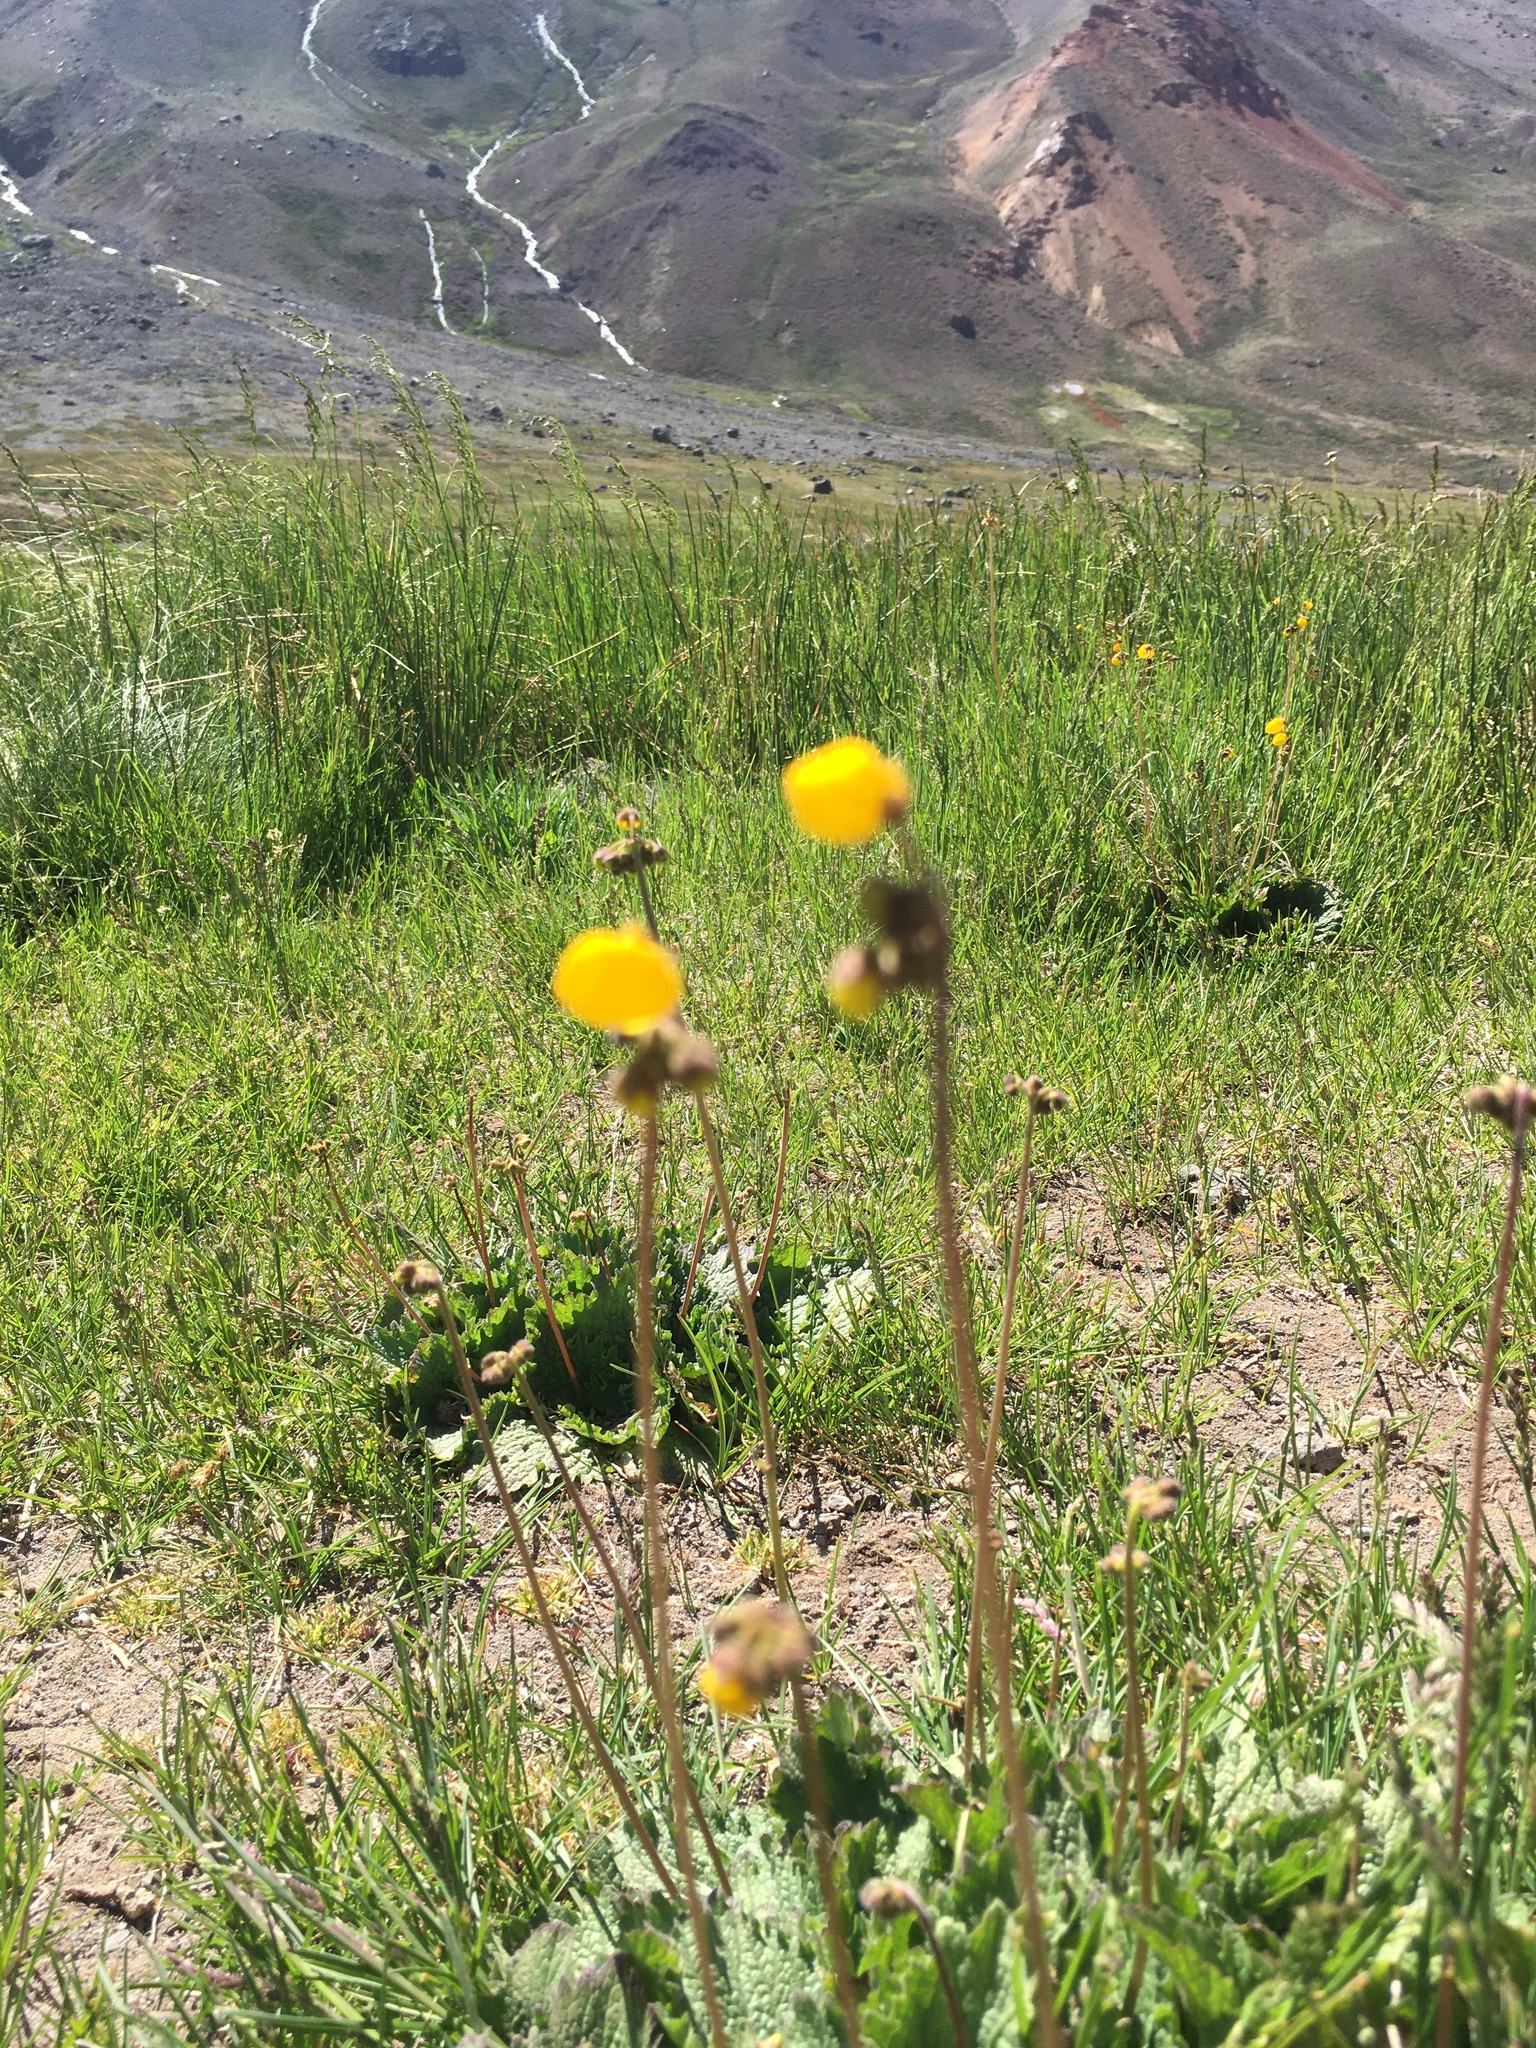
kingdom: Plantae
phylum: Tracheophyta
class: Magnoliopsida
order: Lamiales
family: Calceolariaceae
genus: Calceolaria
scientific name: Calceolaria filicaulis
